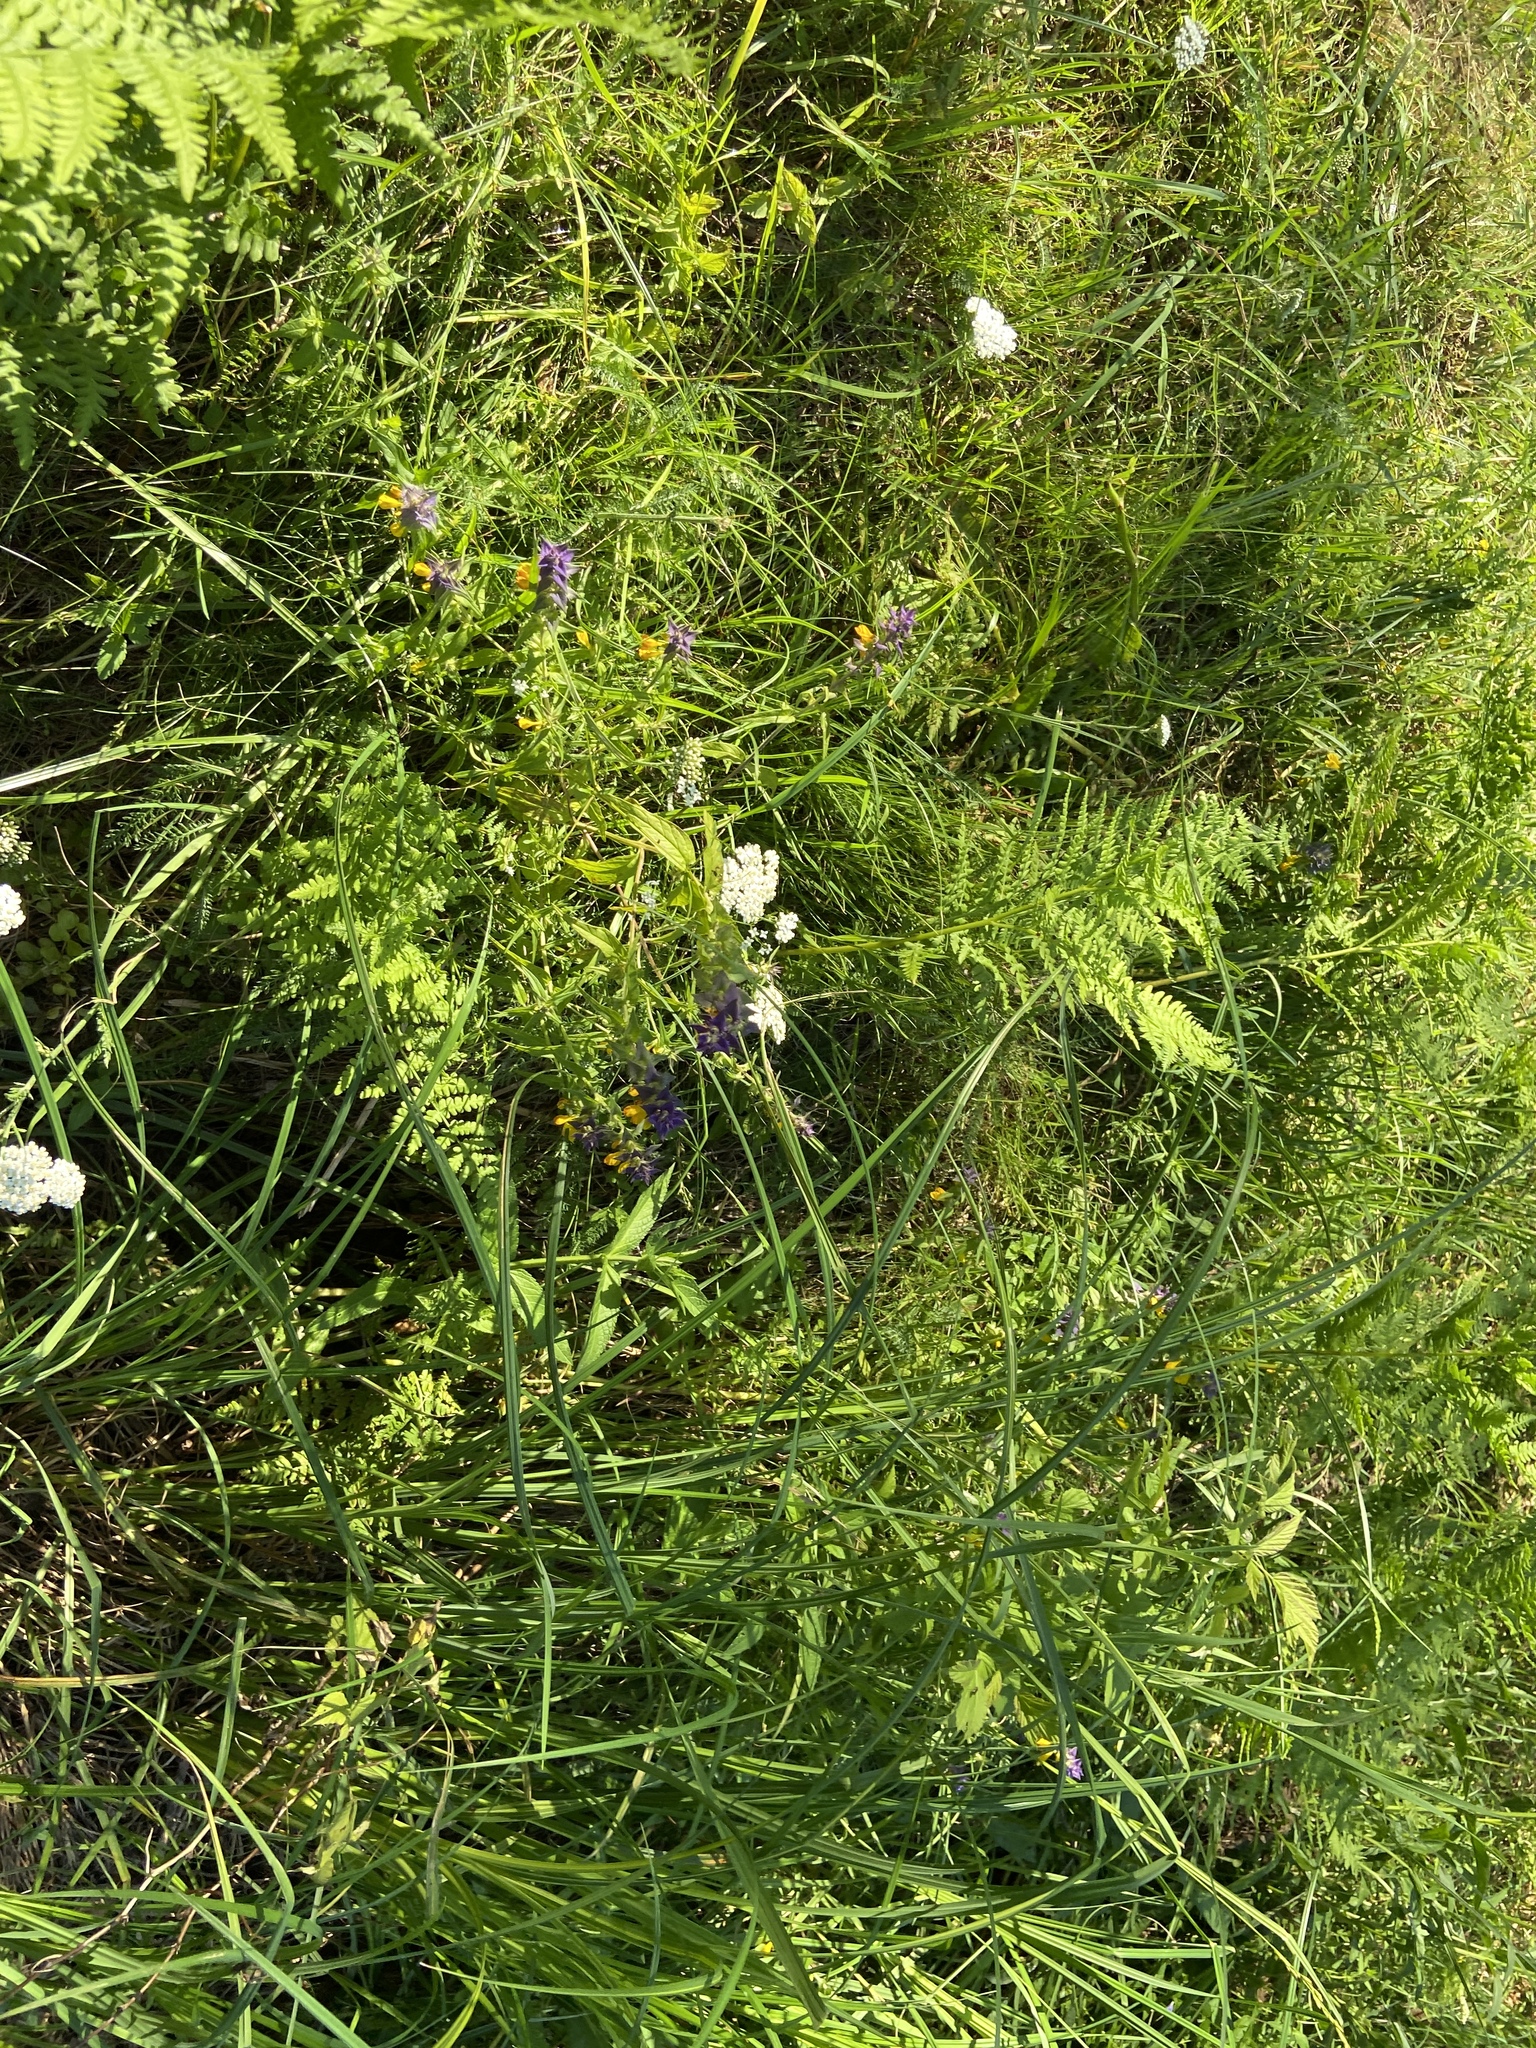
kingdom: Plantae
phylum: Tracheophyta
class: Magnoliopsida
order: Lamiales
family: Orobanchaceae
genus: Melampyrum
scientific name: Melampyrum nemorosum
